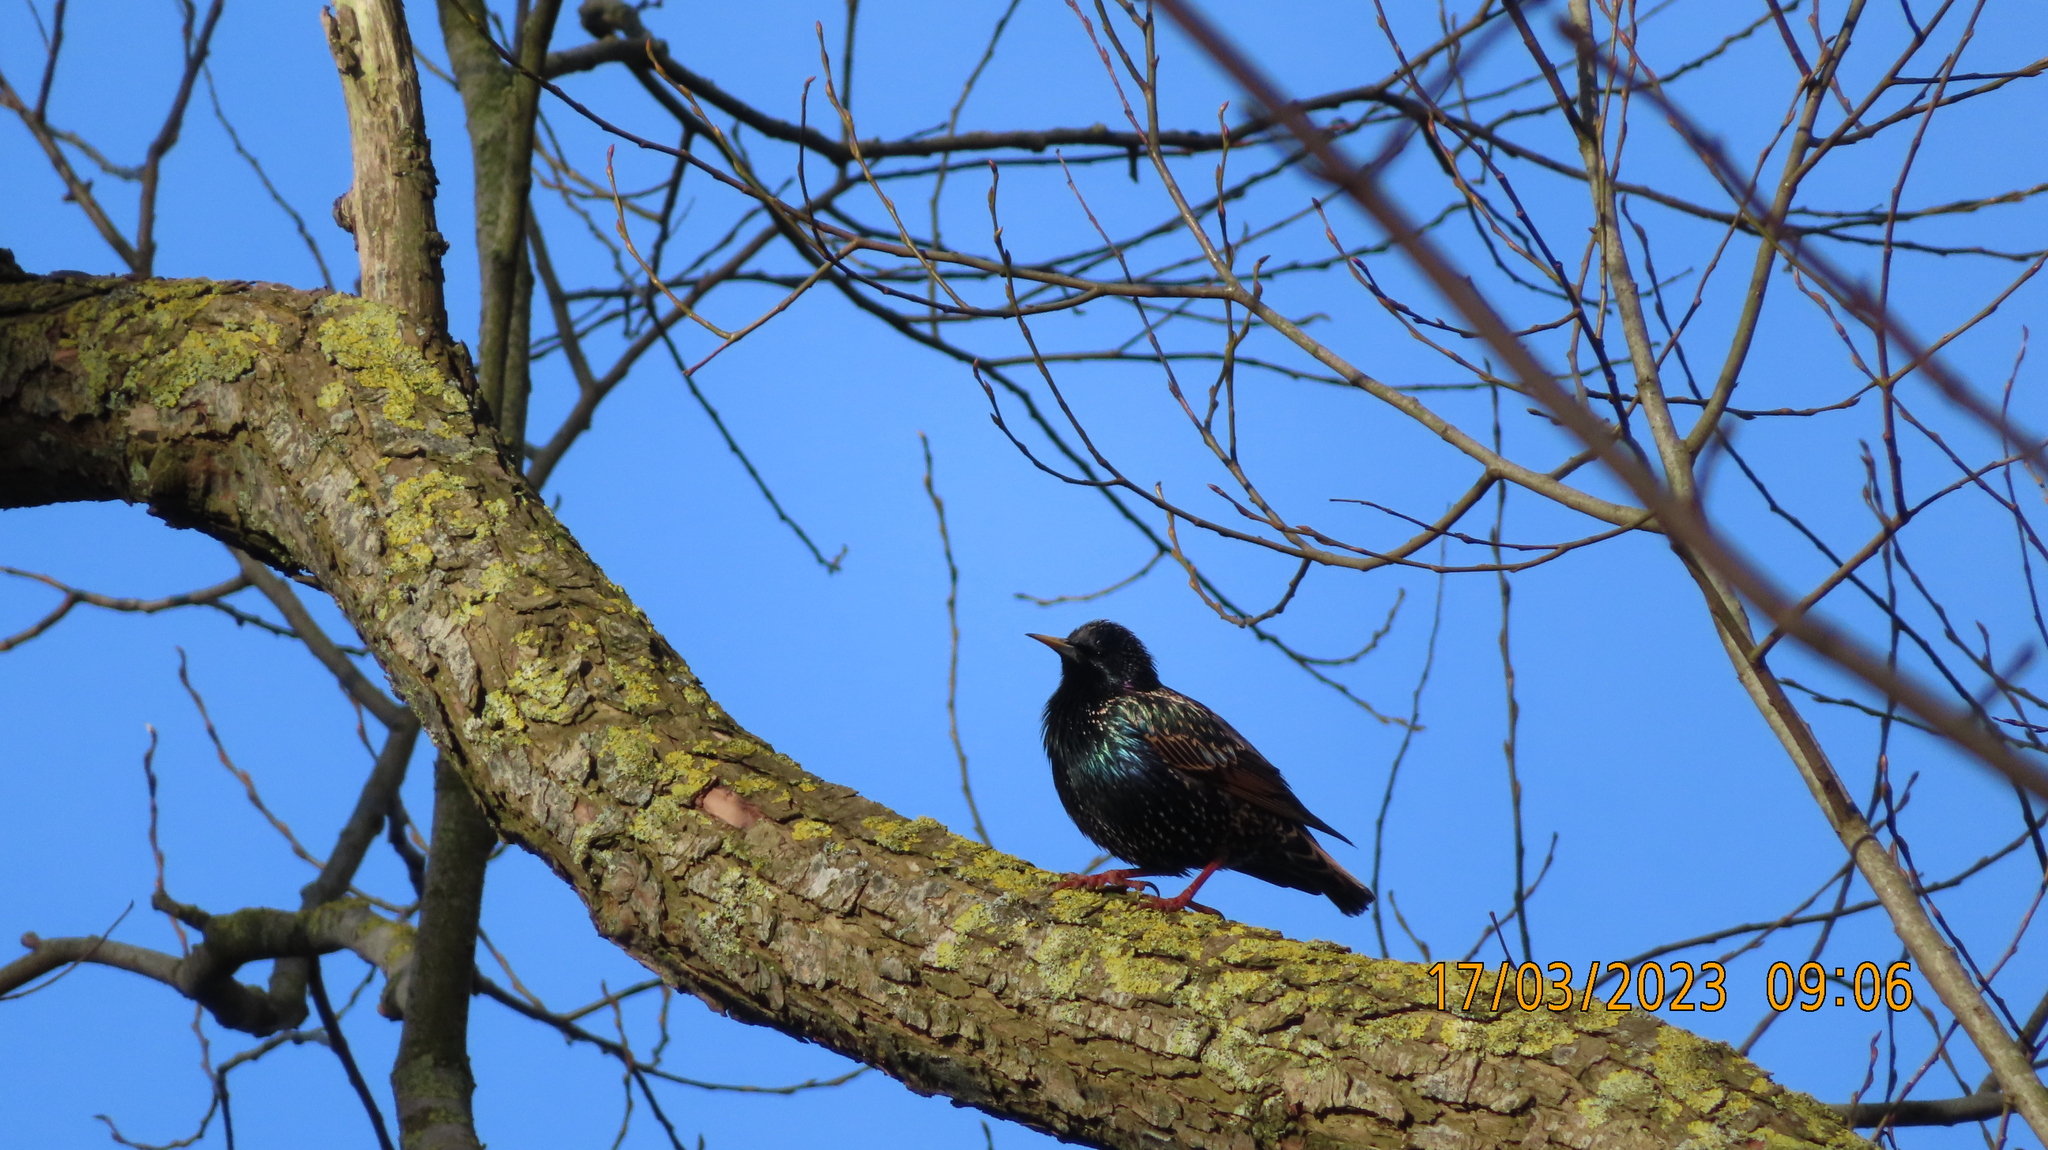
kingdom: Animalia
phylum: Chordata
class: Aves
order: Passeriformes
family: Sturnidae
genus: Sturnus
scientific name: Sturnus vulgaris
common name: Common starling
